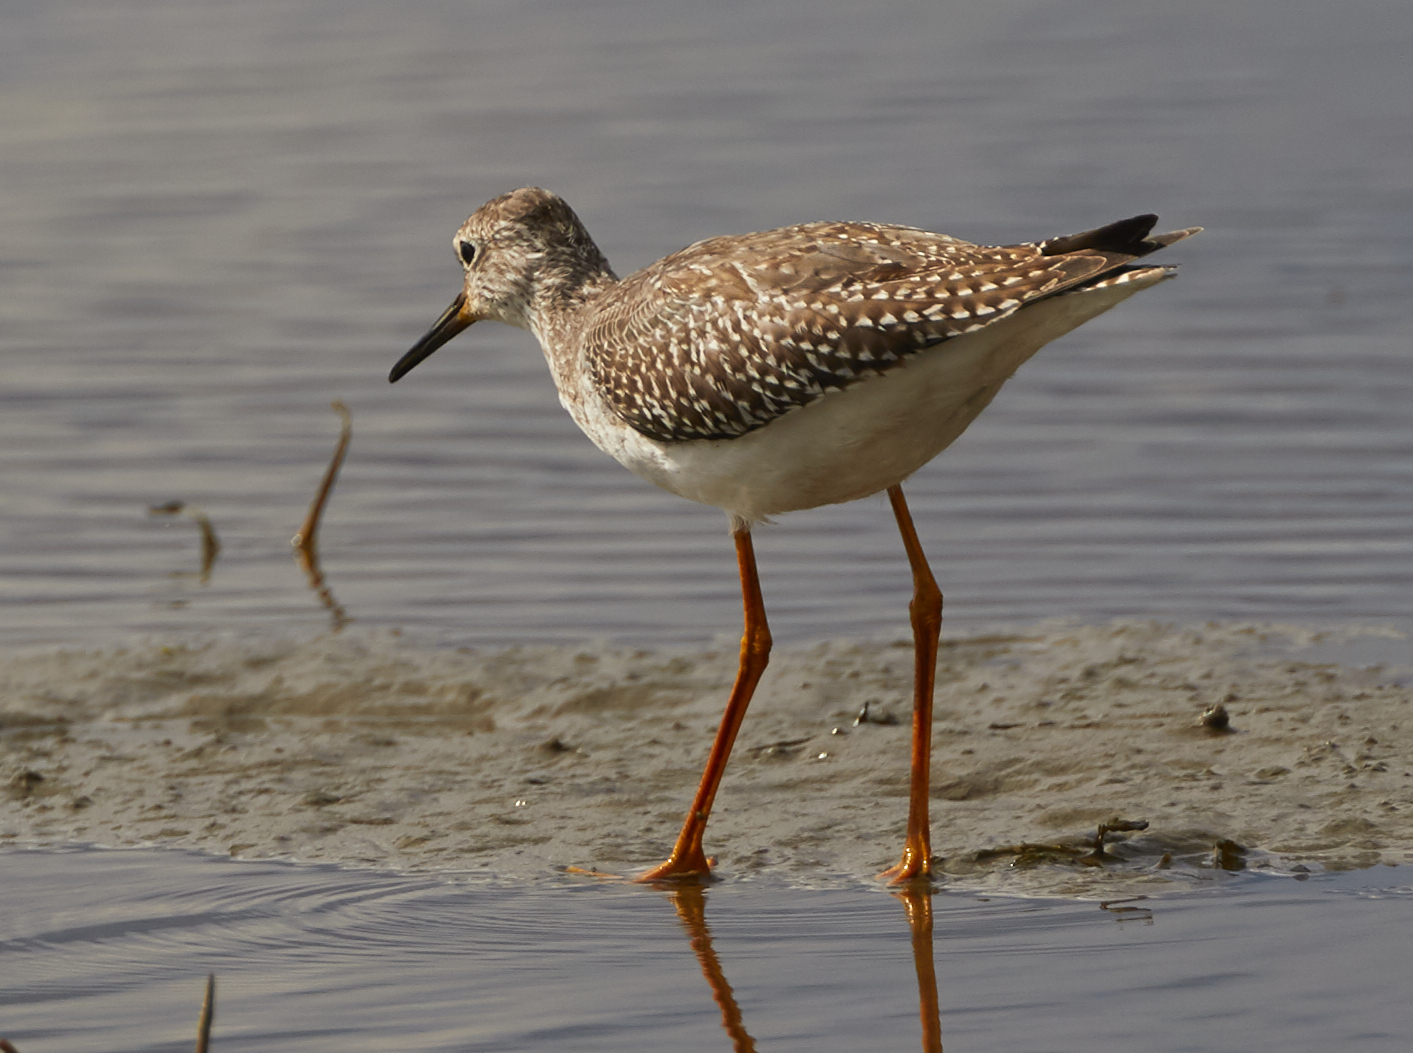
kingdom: Animalia
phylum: Chordata
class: Aves
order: Charadriiformes
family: Scolopacidae
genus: Tringa
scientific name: Tringa flavipes
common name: Lesser yellowlegs
